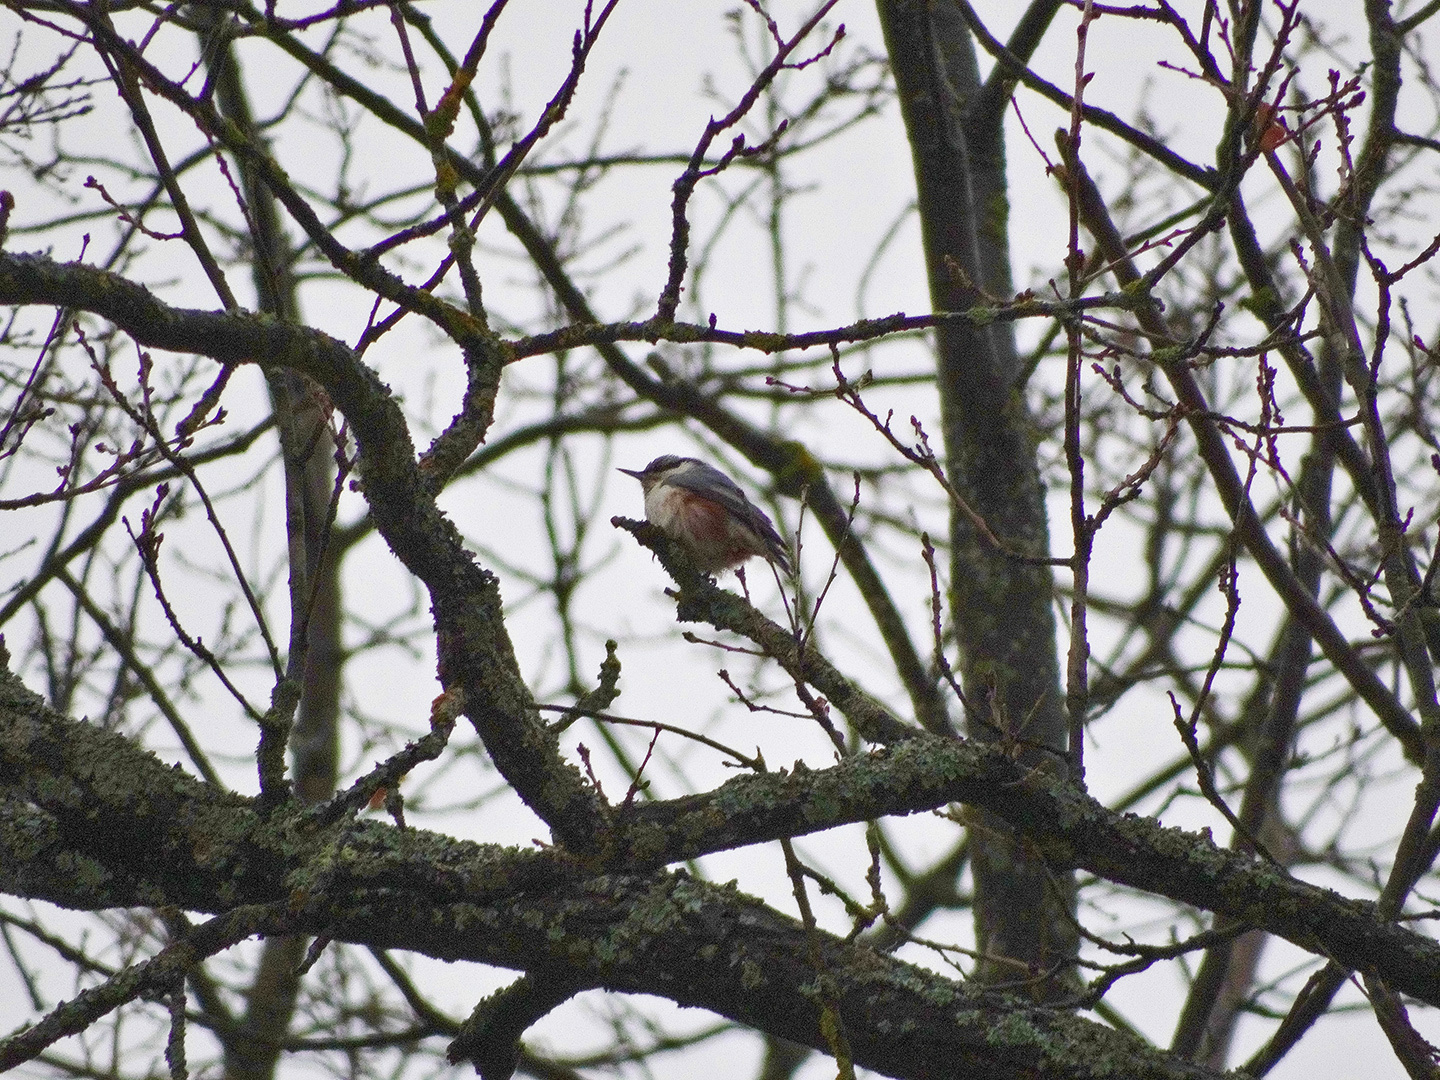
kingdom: Animalia
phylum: Chordata
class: Aves
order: Passeriformes
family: Sittidae
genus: Sitta
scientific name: Sitta europaea
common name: Eurasian nuthatch
